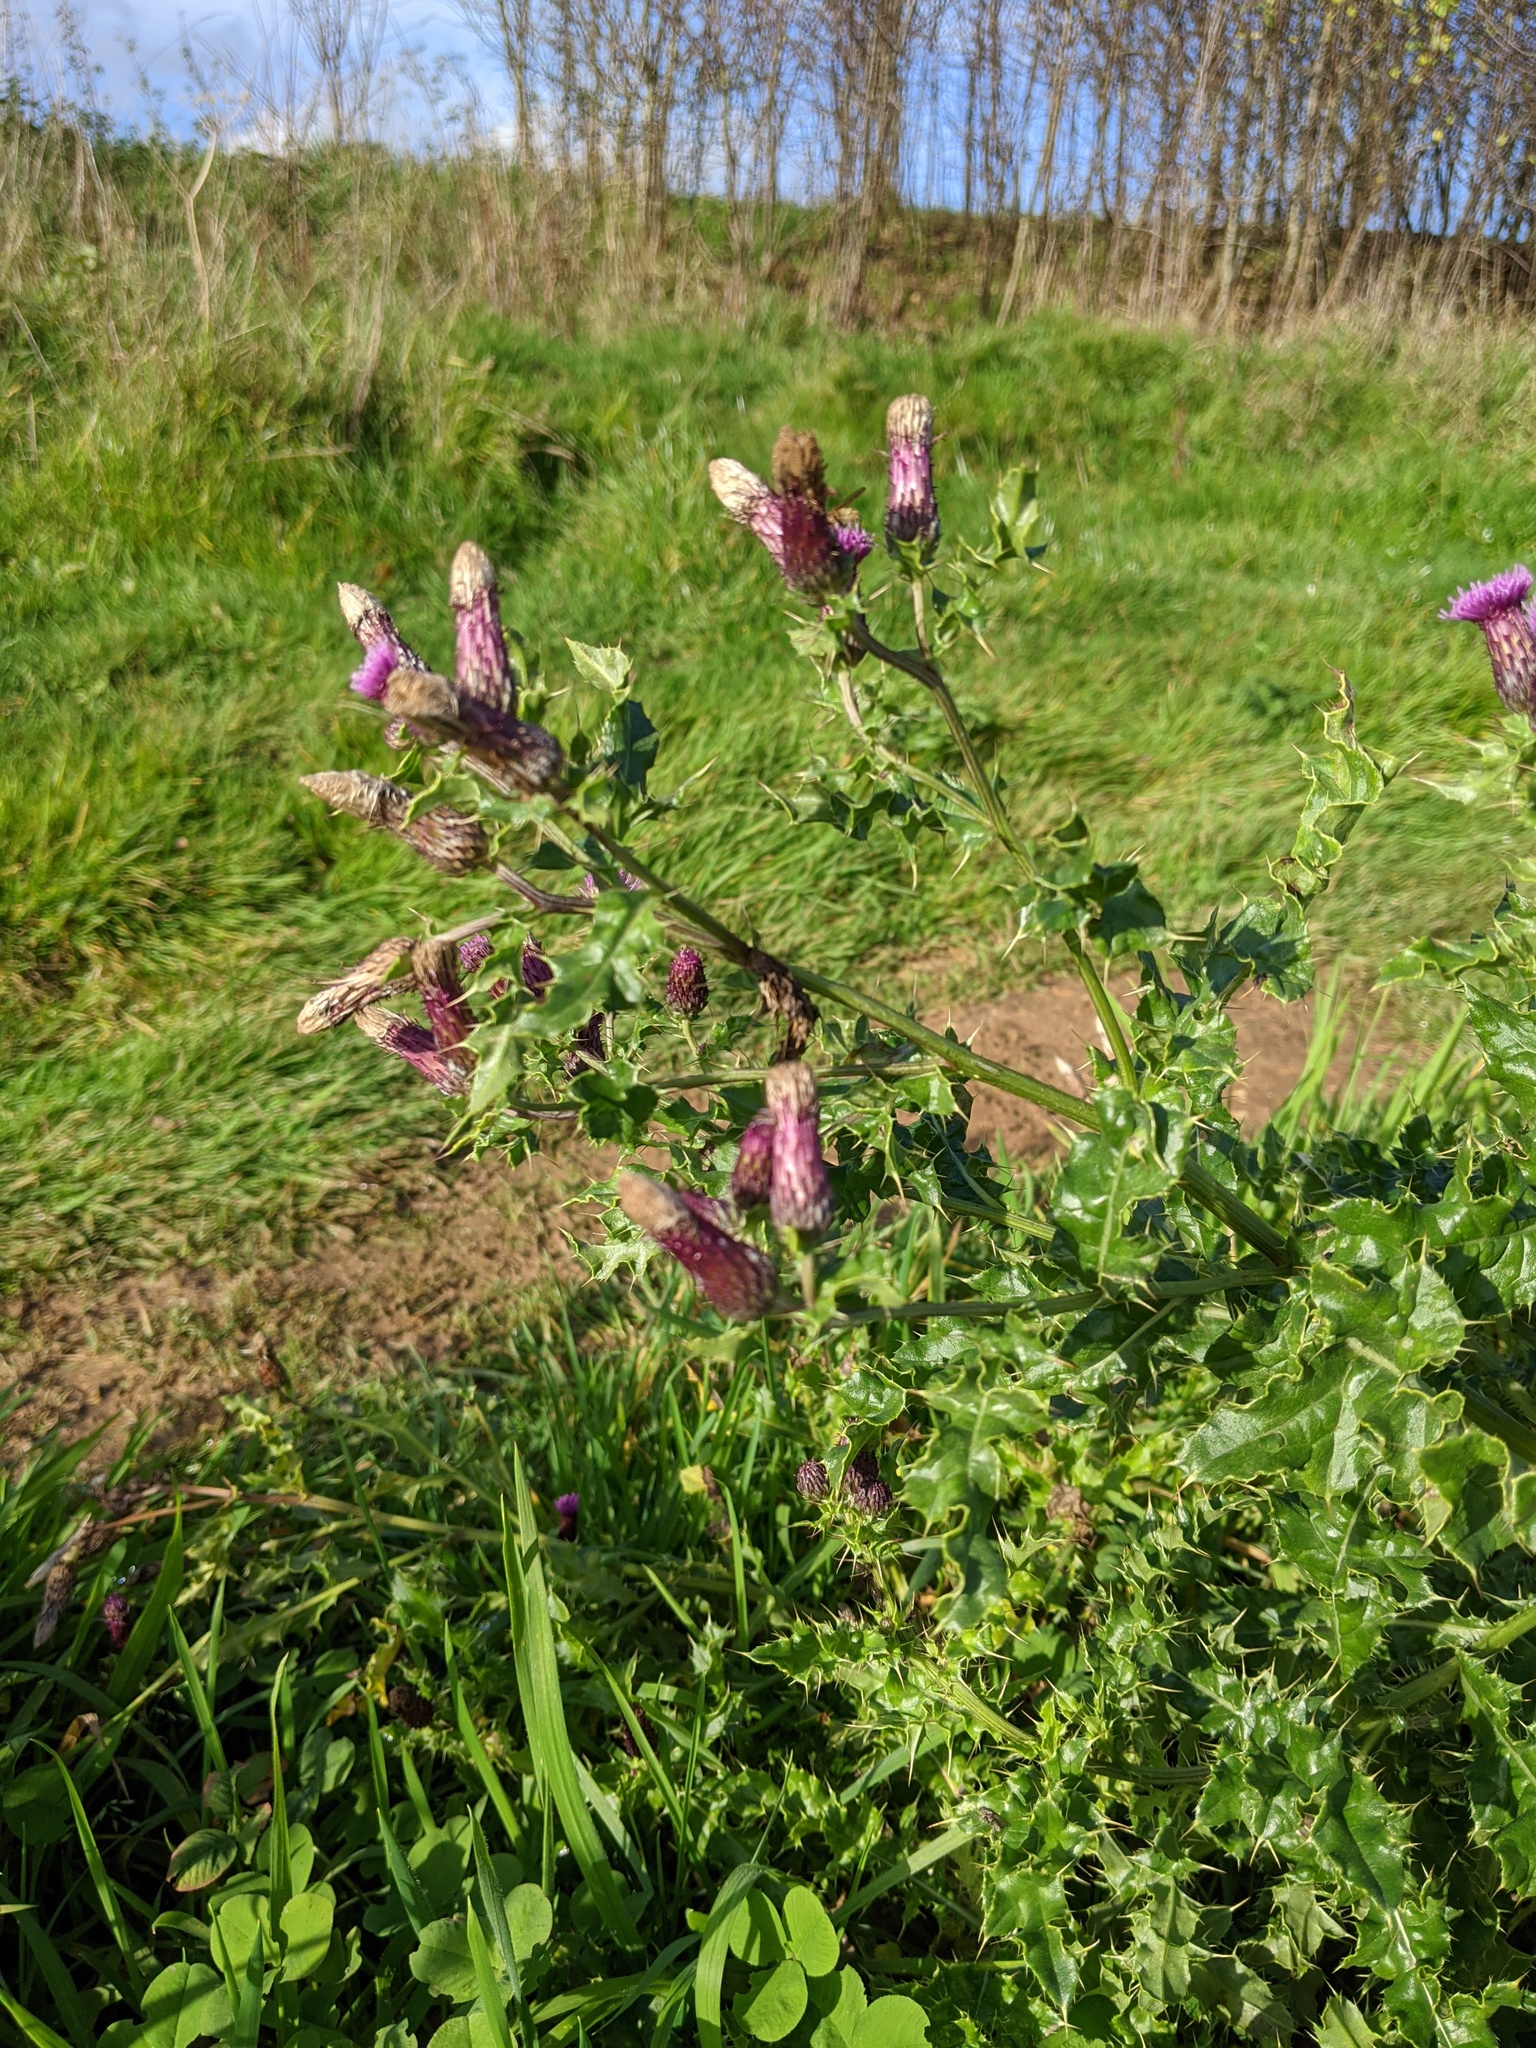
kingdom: Plantae
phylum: Tracheophyta
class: Magnoliopsida
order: Asterales
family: Asteraceae
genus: Cirsium
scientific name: Cirsium arvense
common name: Creeping thistle
